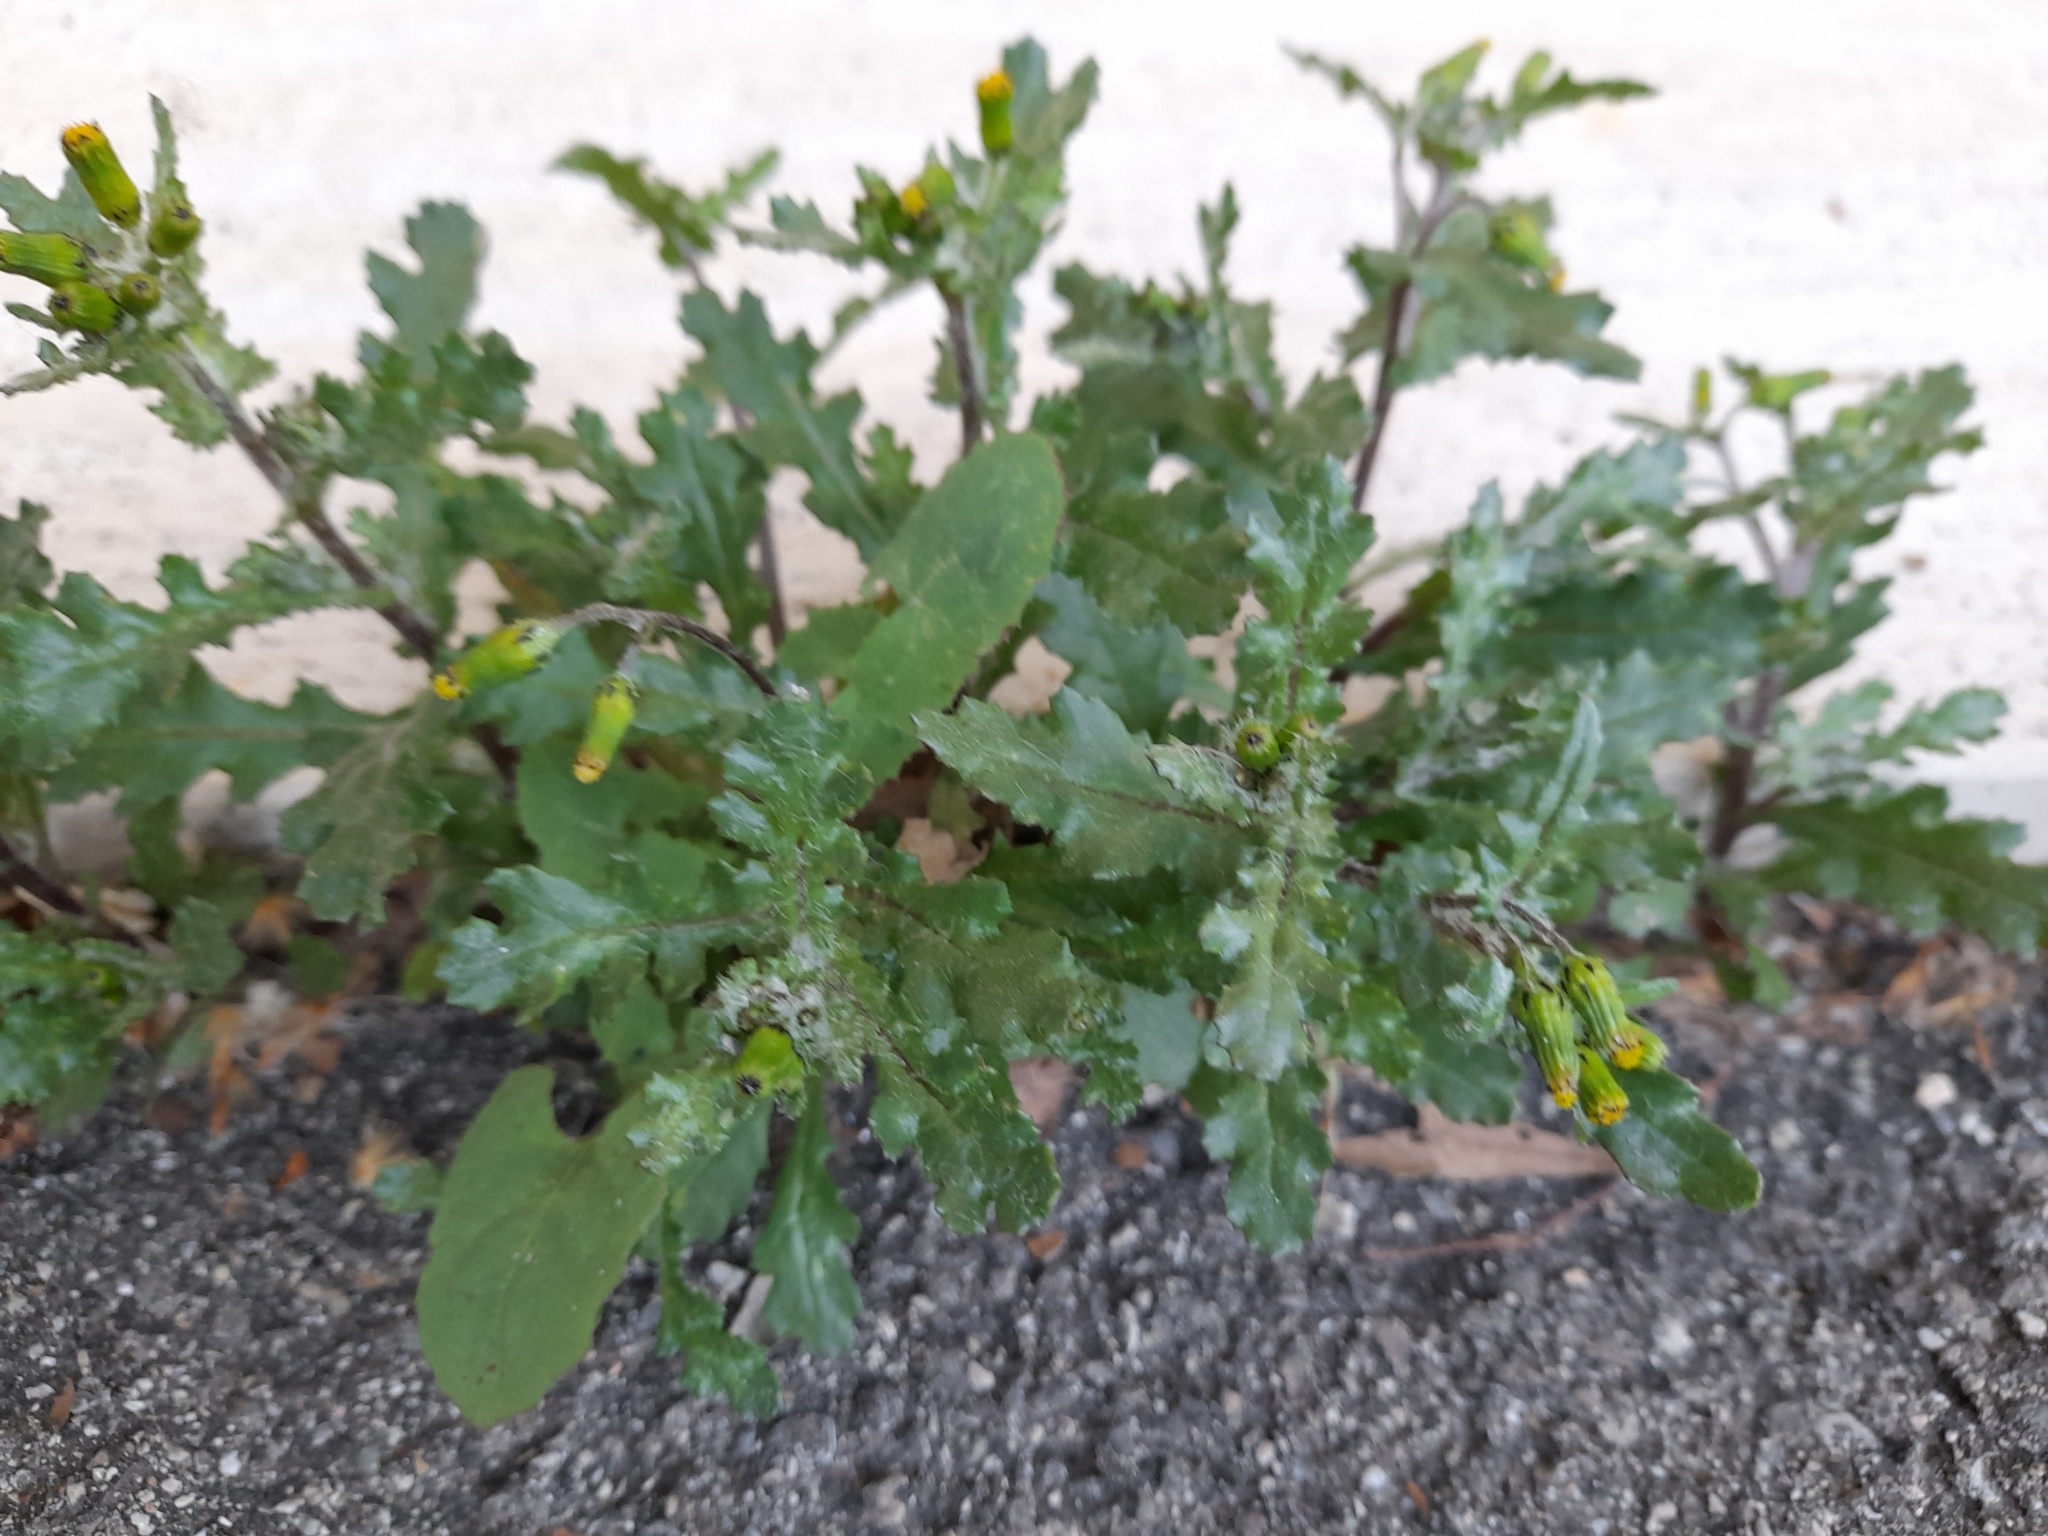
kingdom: Plantae
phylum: Tracheophyta
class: Magnoliopsida
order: Asterales
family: Asteraceae
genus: Senecio
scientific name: Senecio vulgaris
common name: Old-man-in-the-spring
